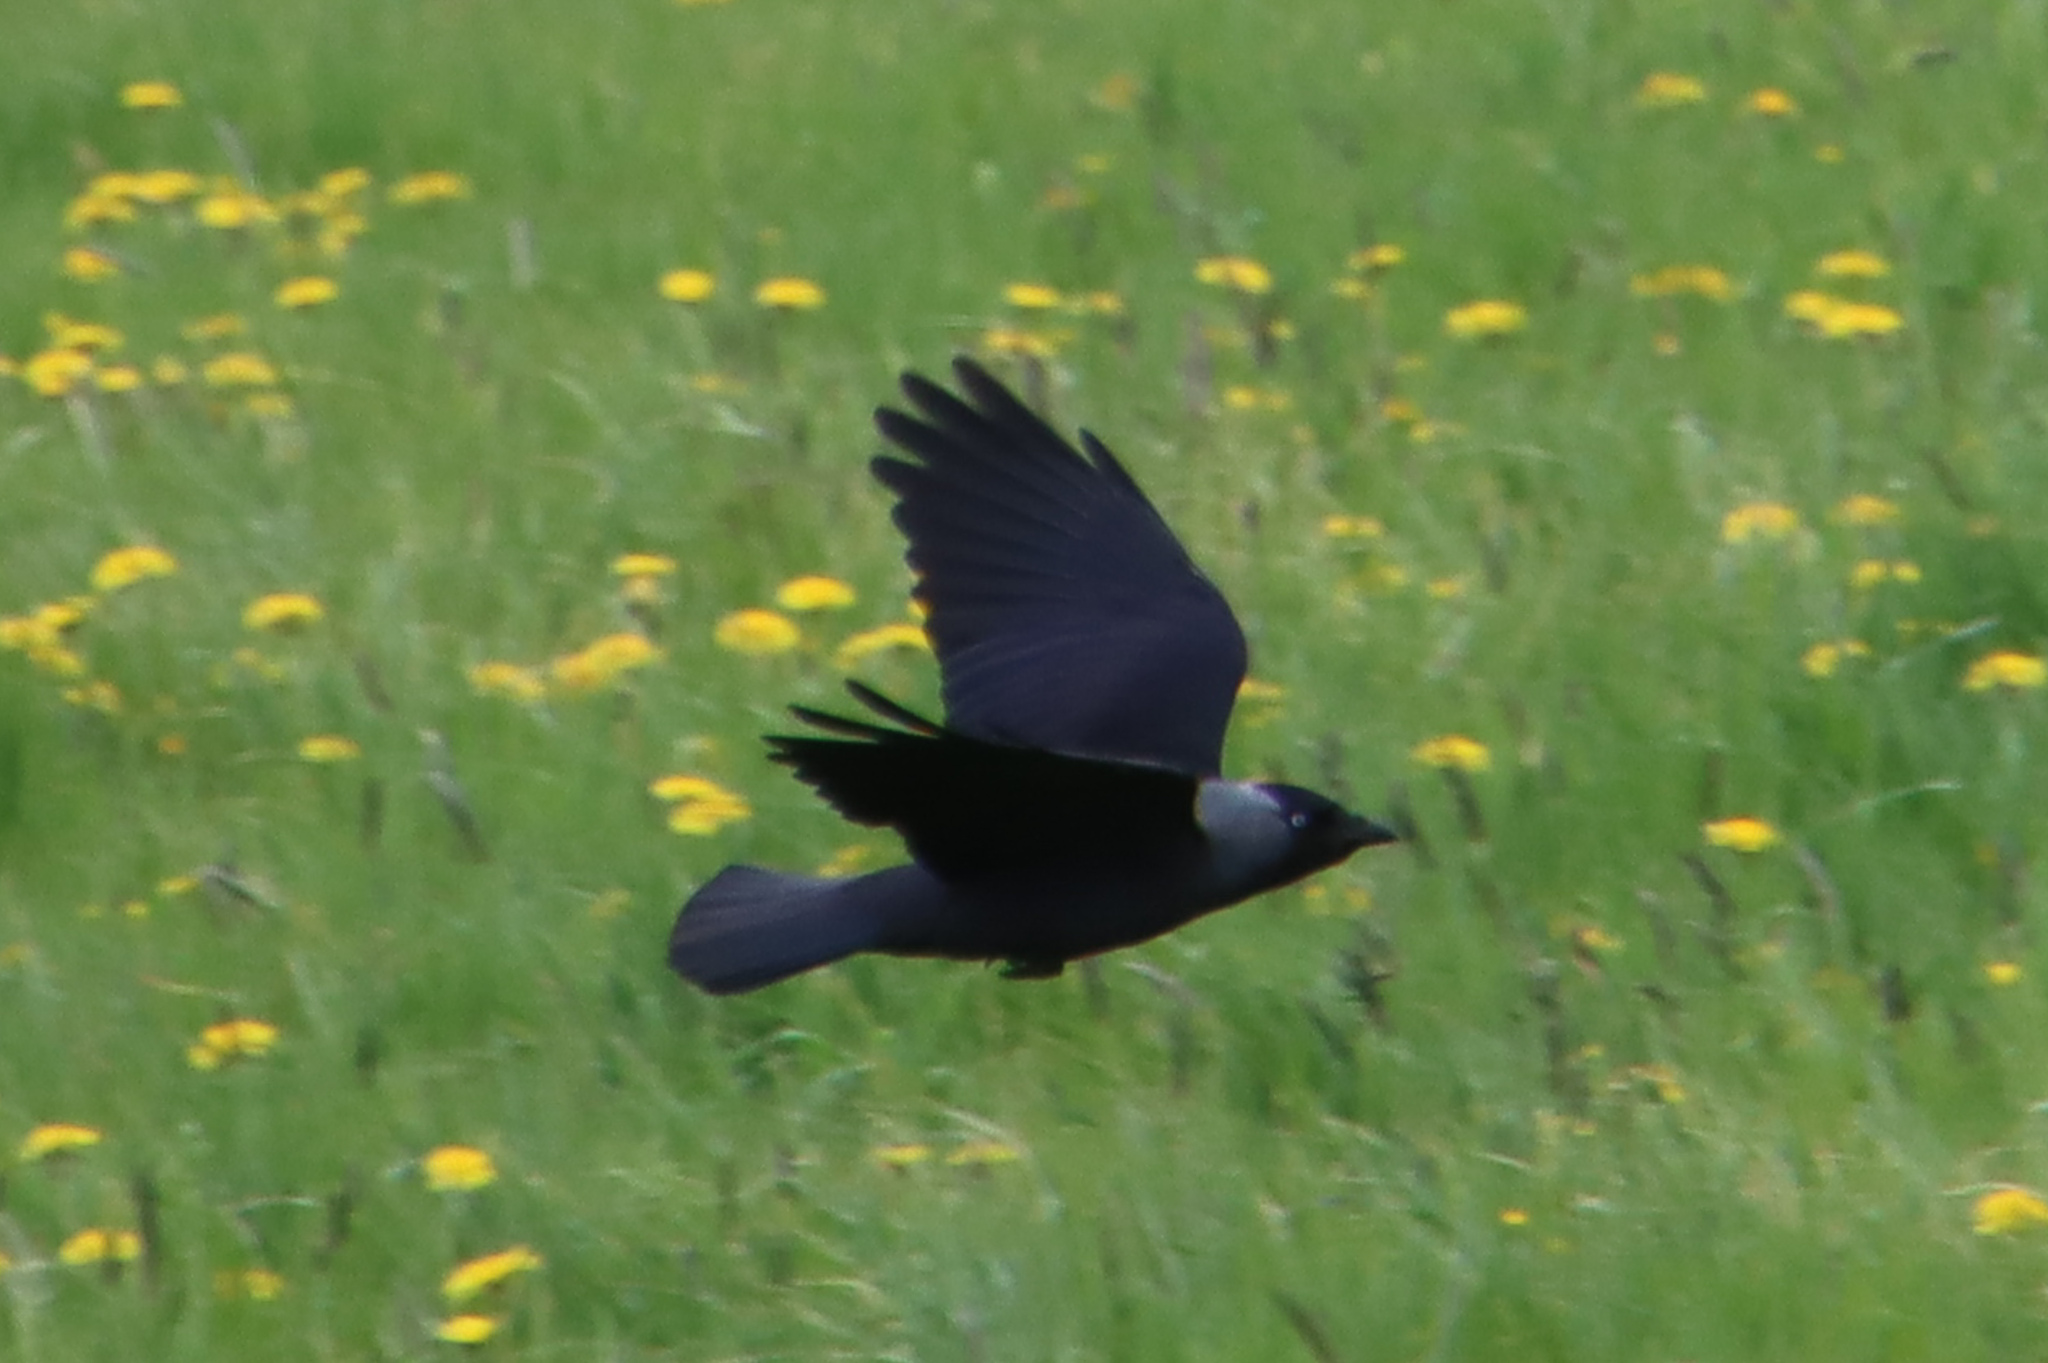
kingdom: Animalia
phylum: Chordata
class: Aves
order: Passeriformes
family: Corvidae
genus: Coloeus
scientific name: Coloeus monedula
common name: Western jackdaw
